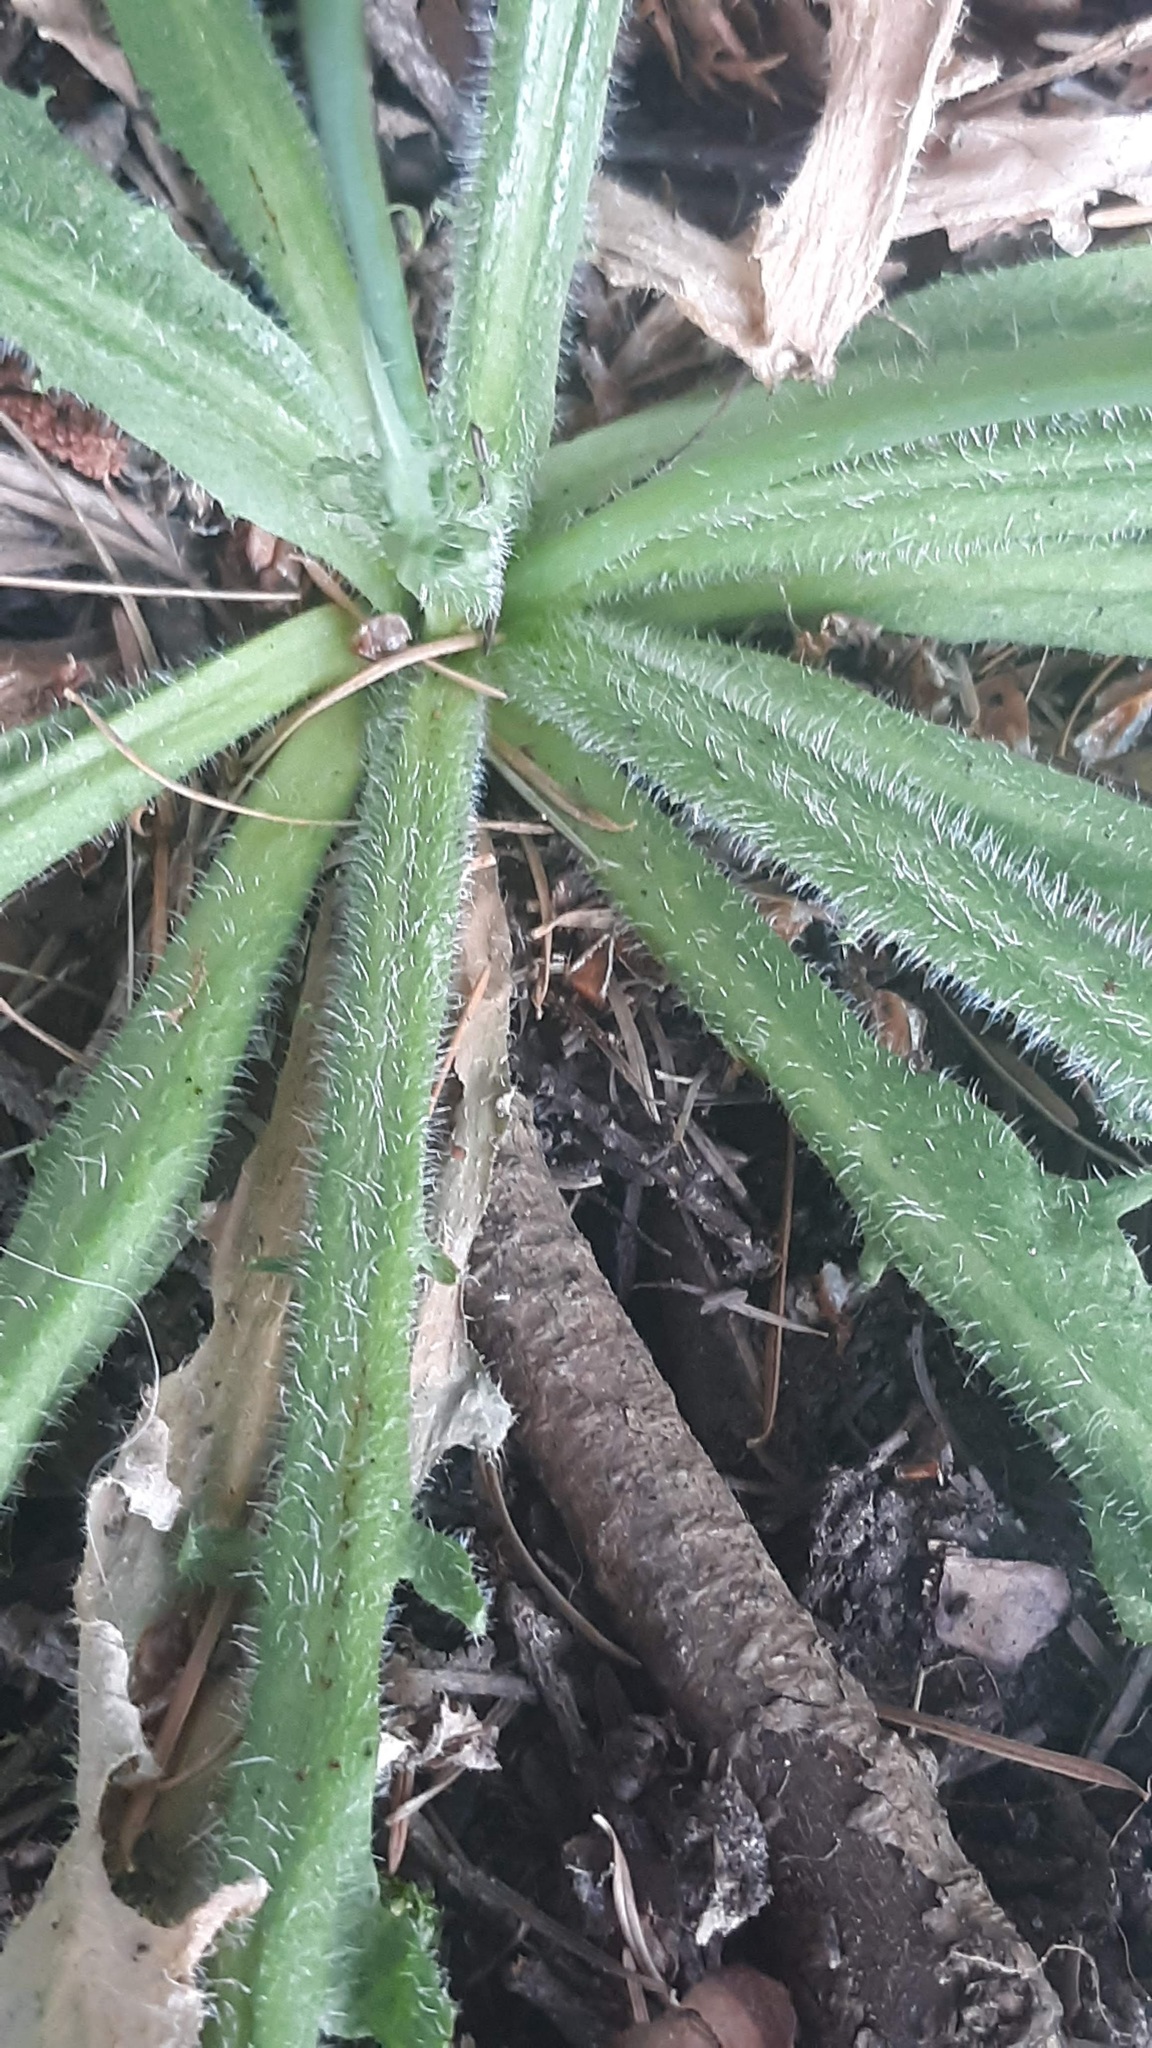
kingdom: Plantae
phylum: Tracheophyta
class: Magnoliopsida
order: Asterales
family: Asteraceae
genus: Hypochaeris
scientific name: Hypochaeris radicata
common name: Flatweed
